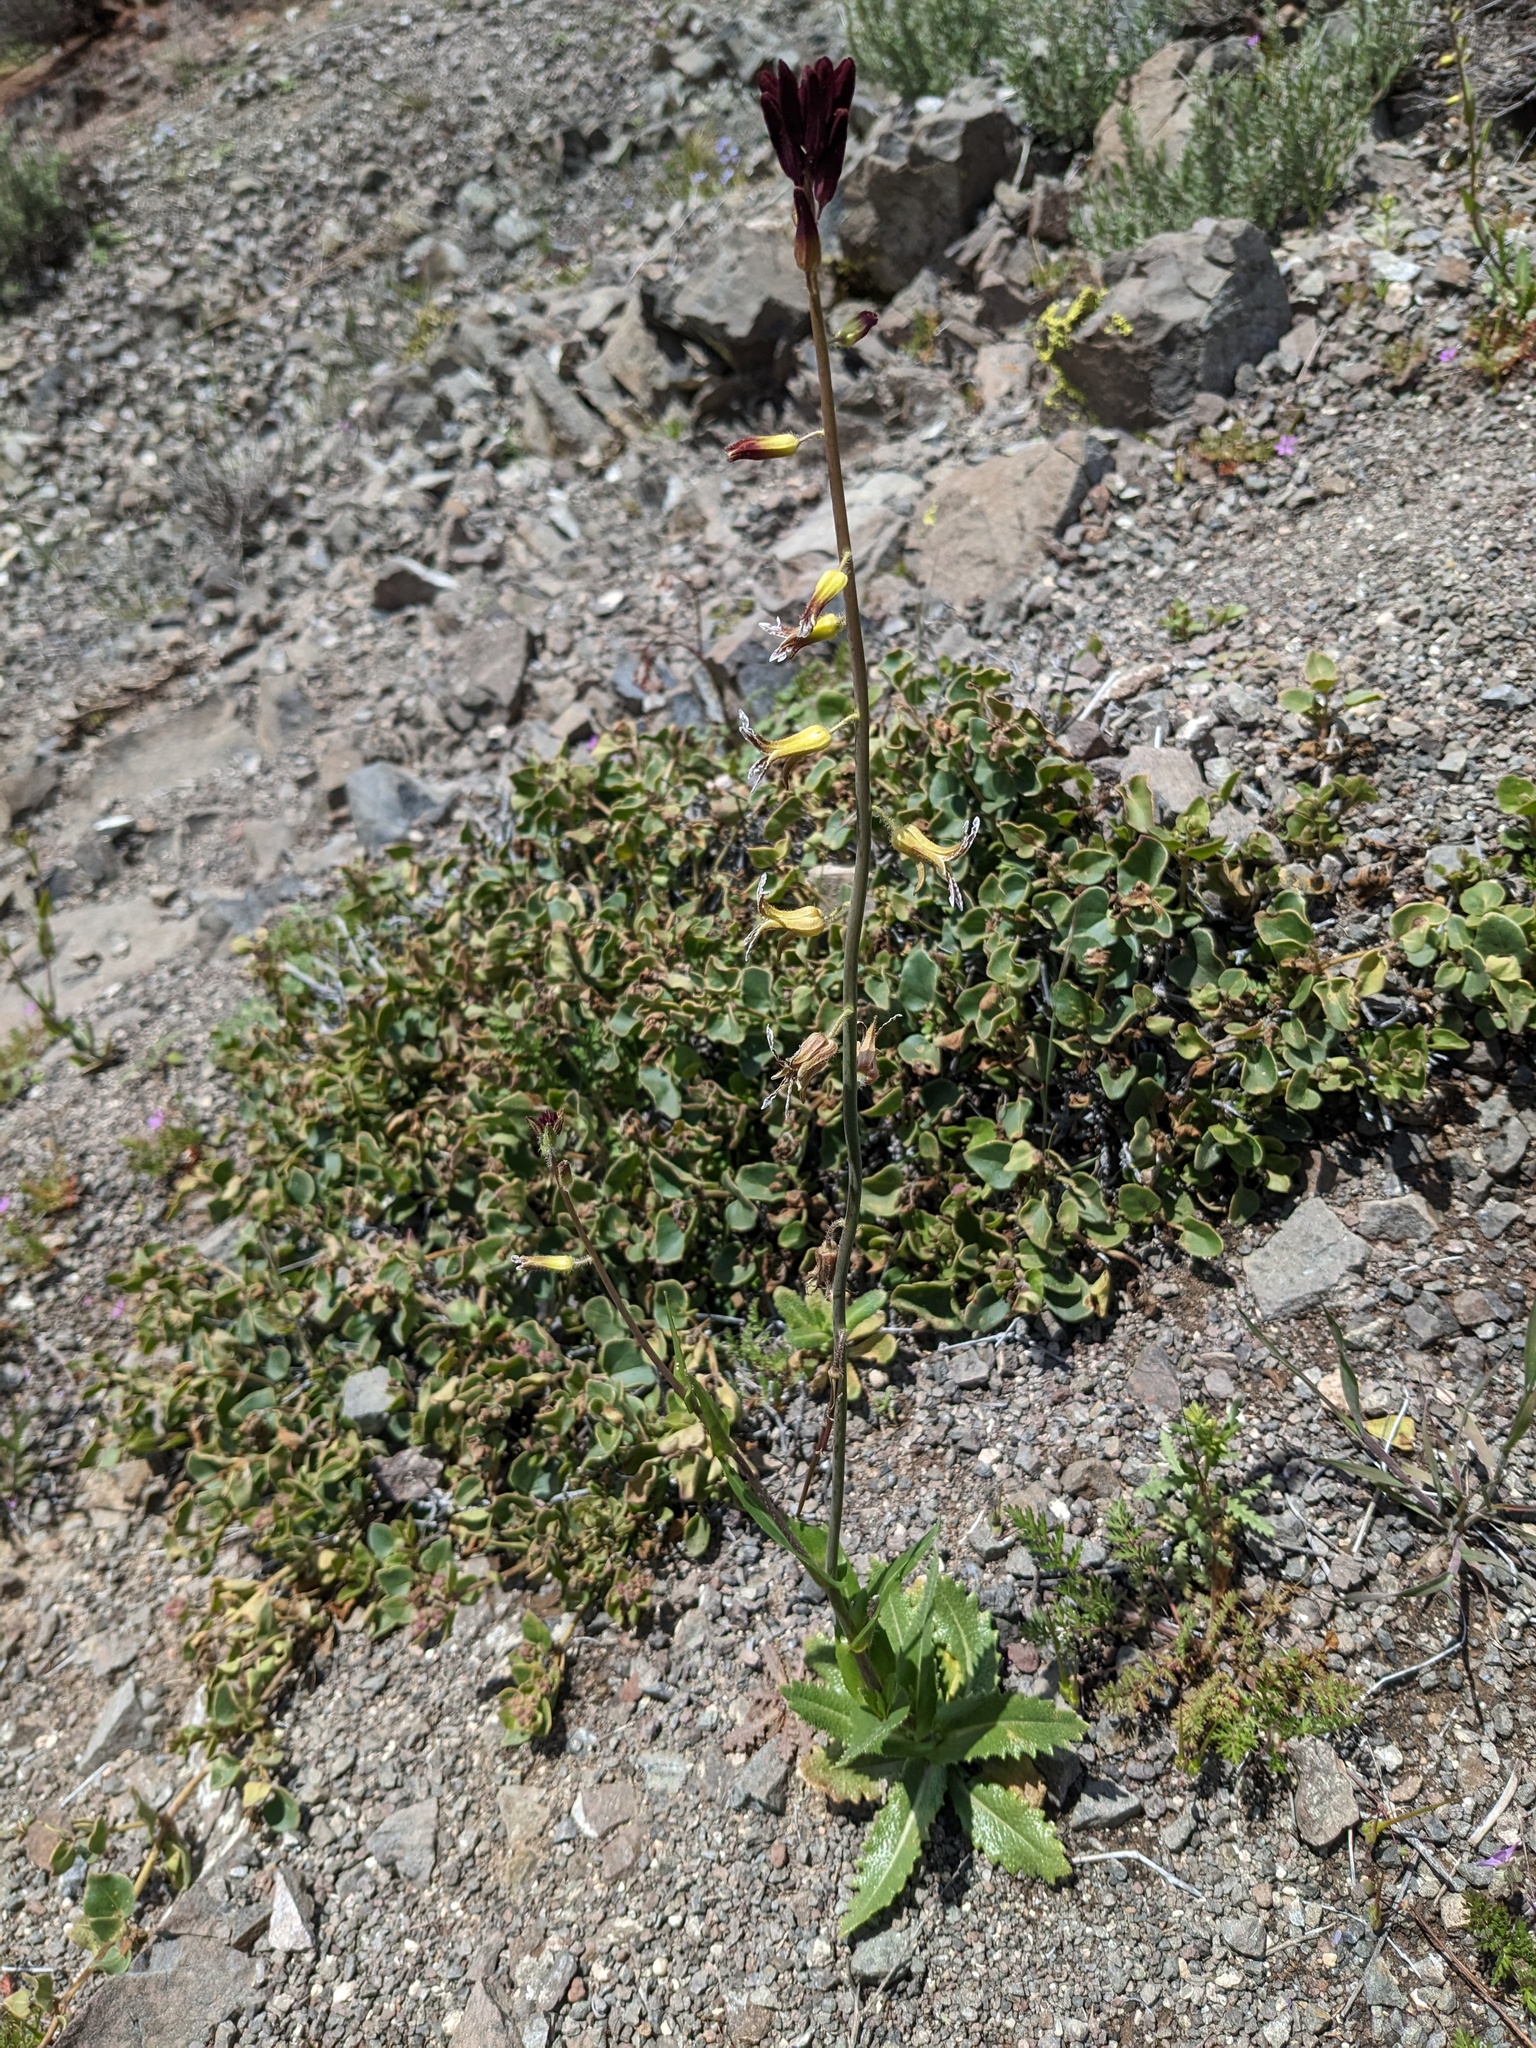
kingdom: Plantae
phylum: Tracheophyta
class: Magnoliopsida
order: Brassicales
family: Brassicaceae
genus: Streptanthus
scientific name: Streptanthus coulteri
